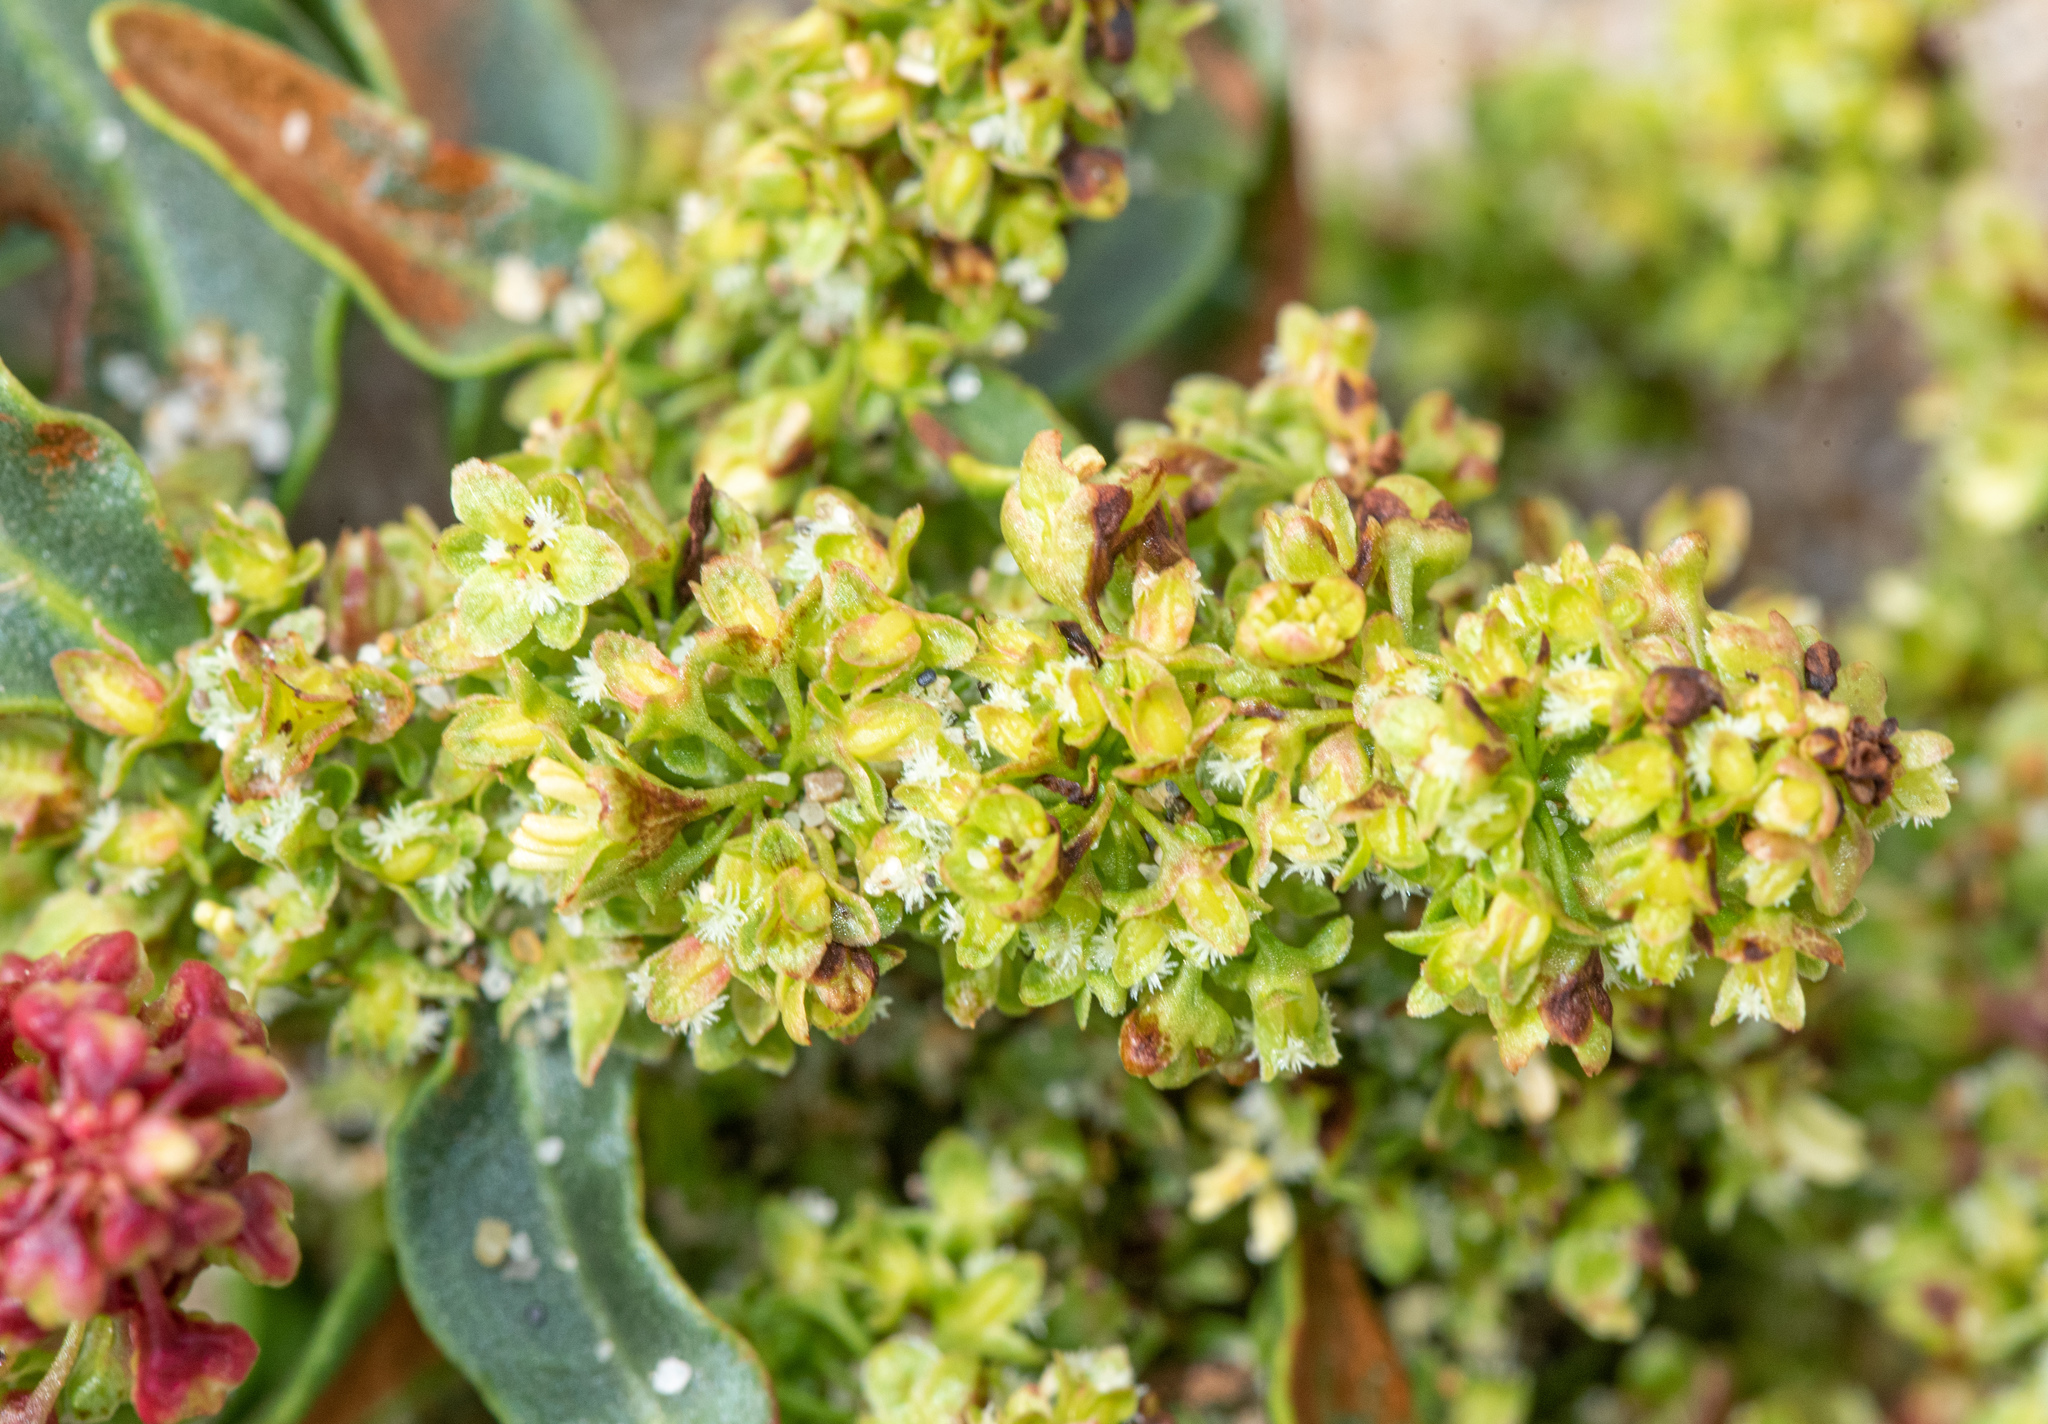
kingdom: Plantae
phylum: Tracheophyta
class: Magnoliopsida
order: Caryophyllales
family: Polygonaceae
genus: Rumex
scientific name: Rumex crassus
